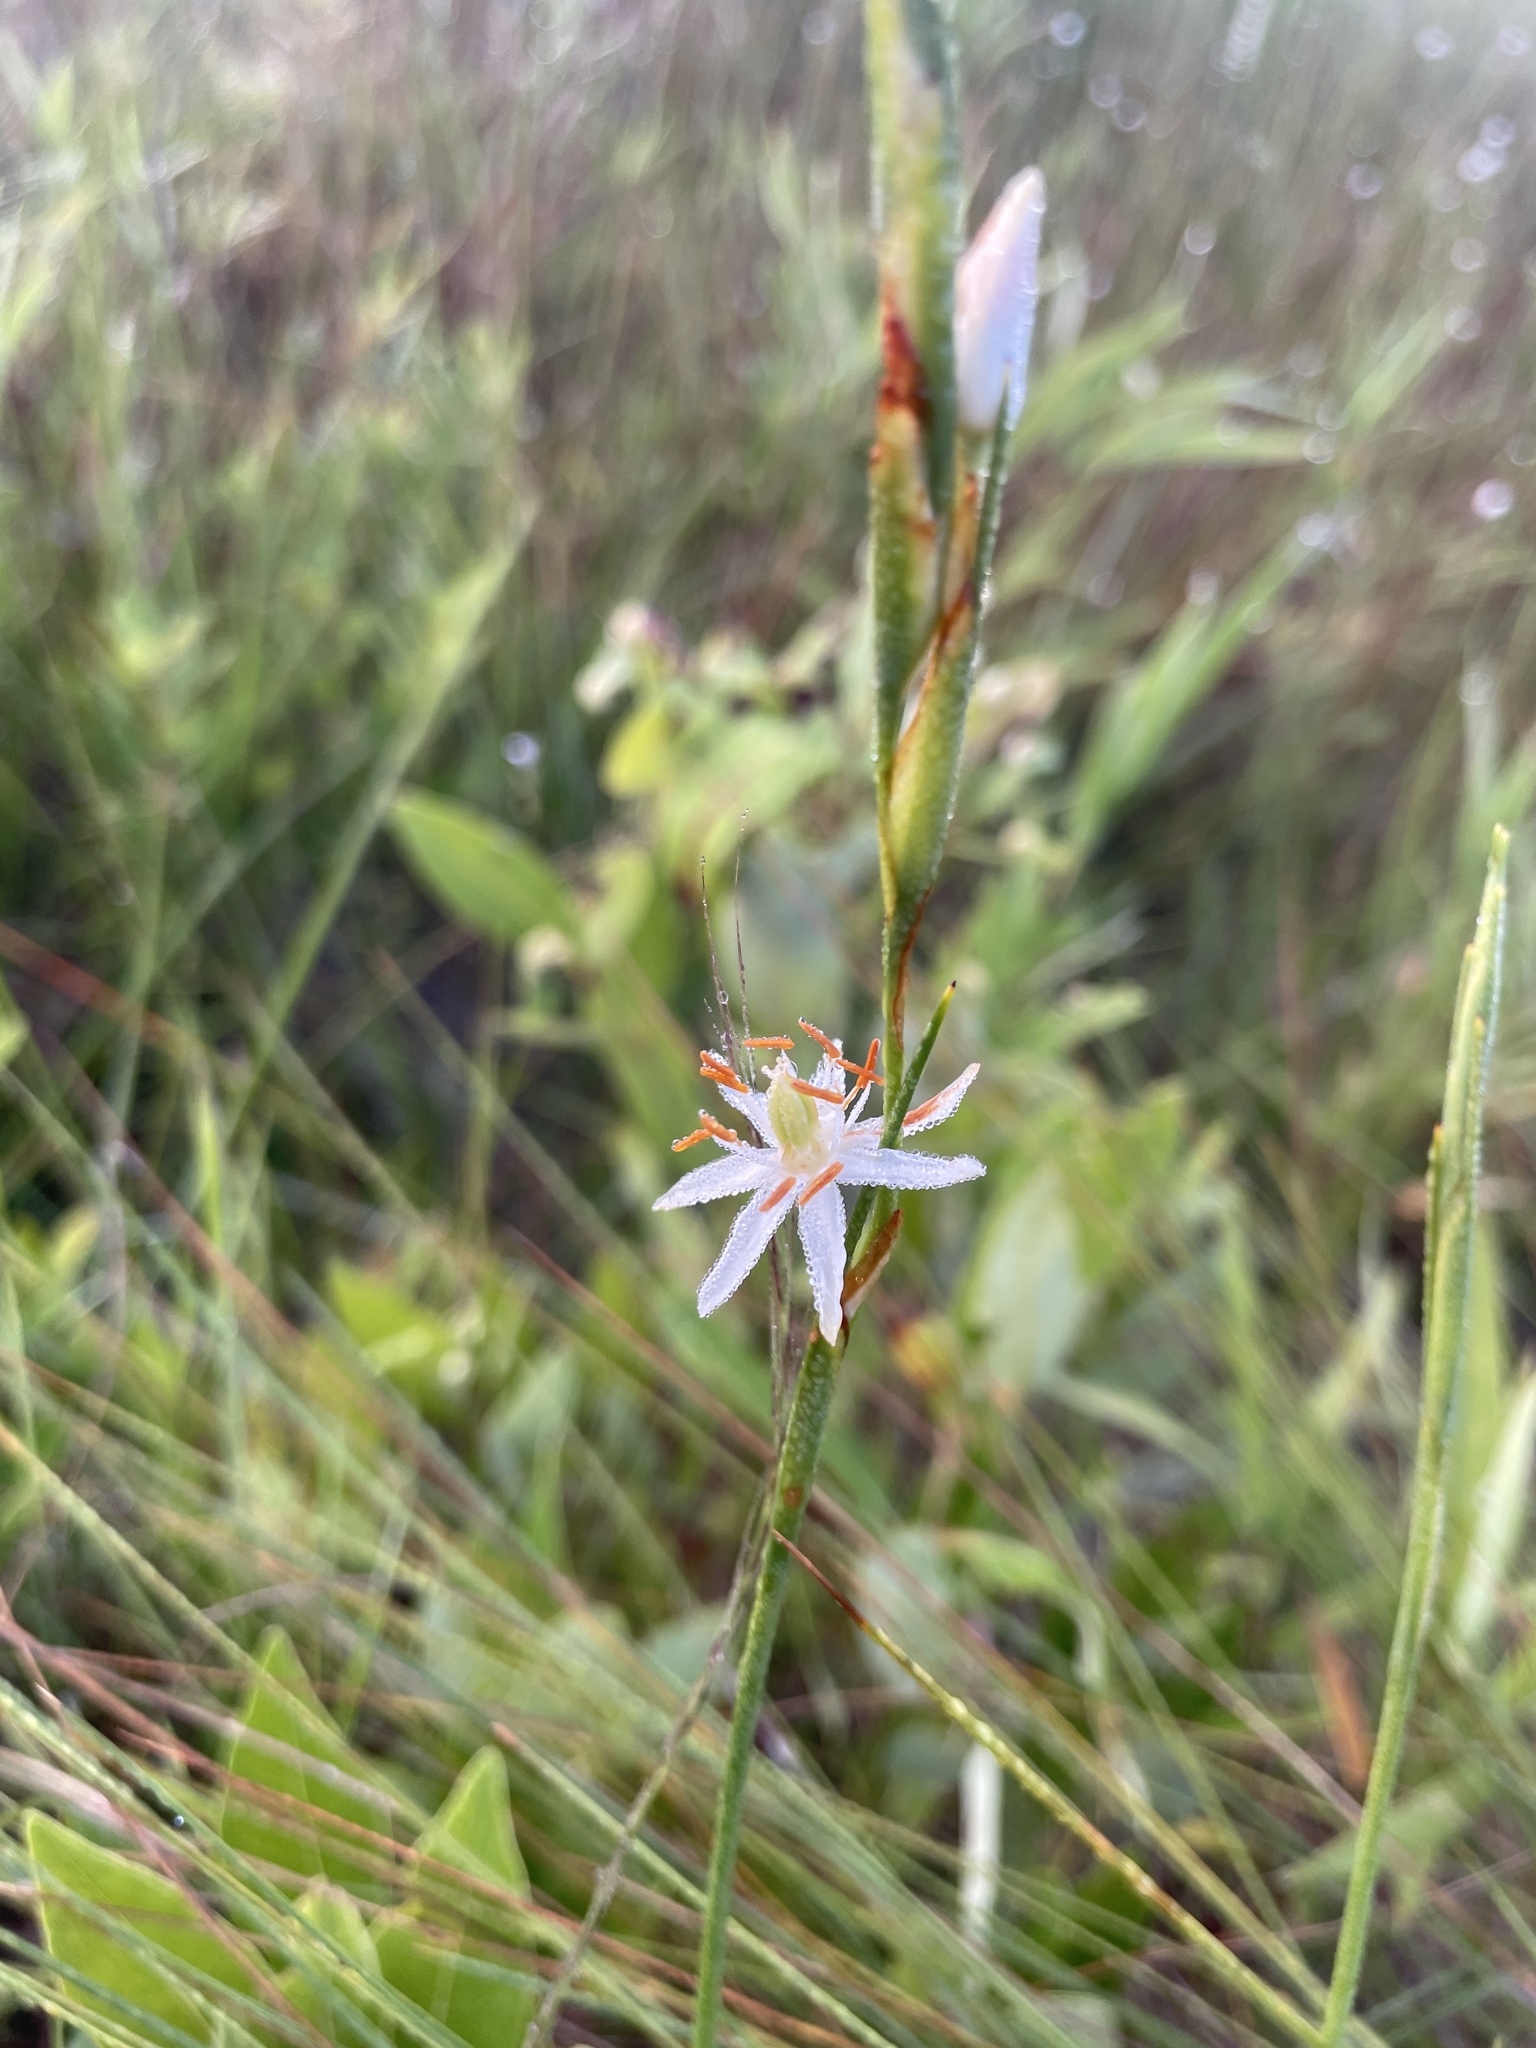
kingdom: Plantae
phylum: Tracheophyta
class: Liliopsida
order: Alismatales
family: Tofieldiaceae
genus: Pleea
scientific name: Pleea tenuifolia
